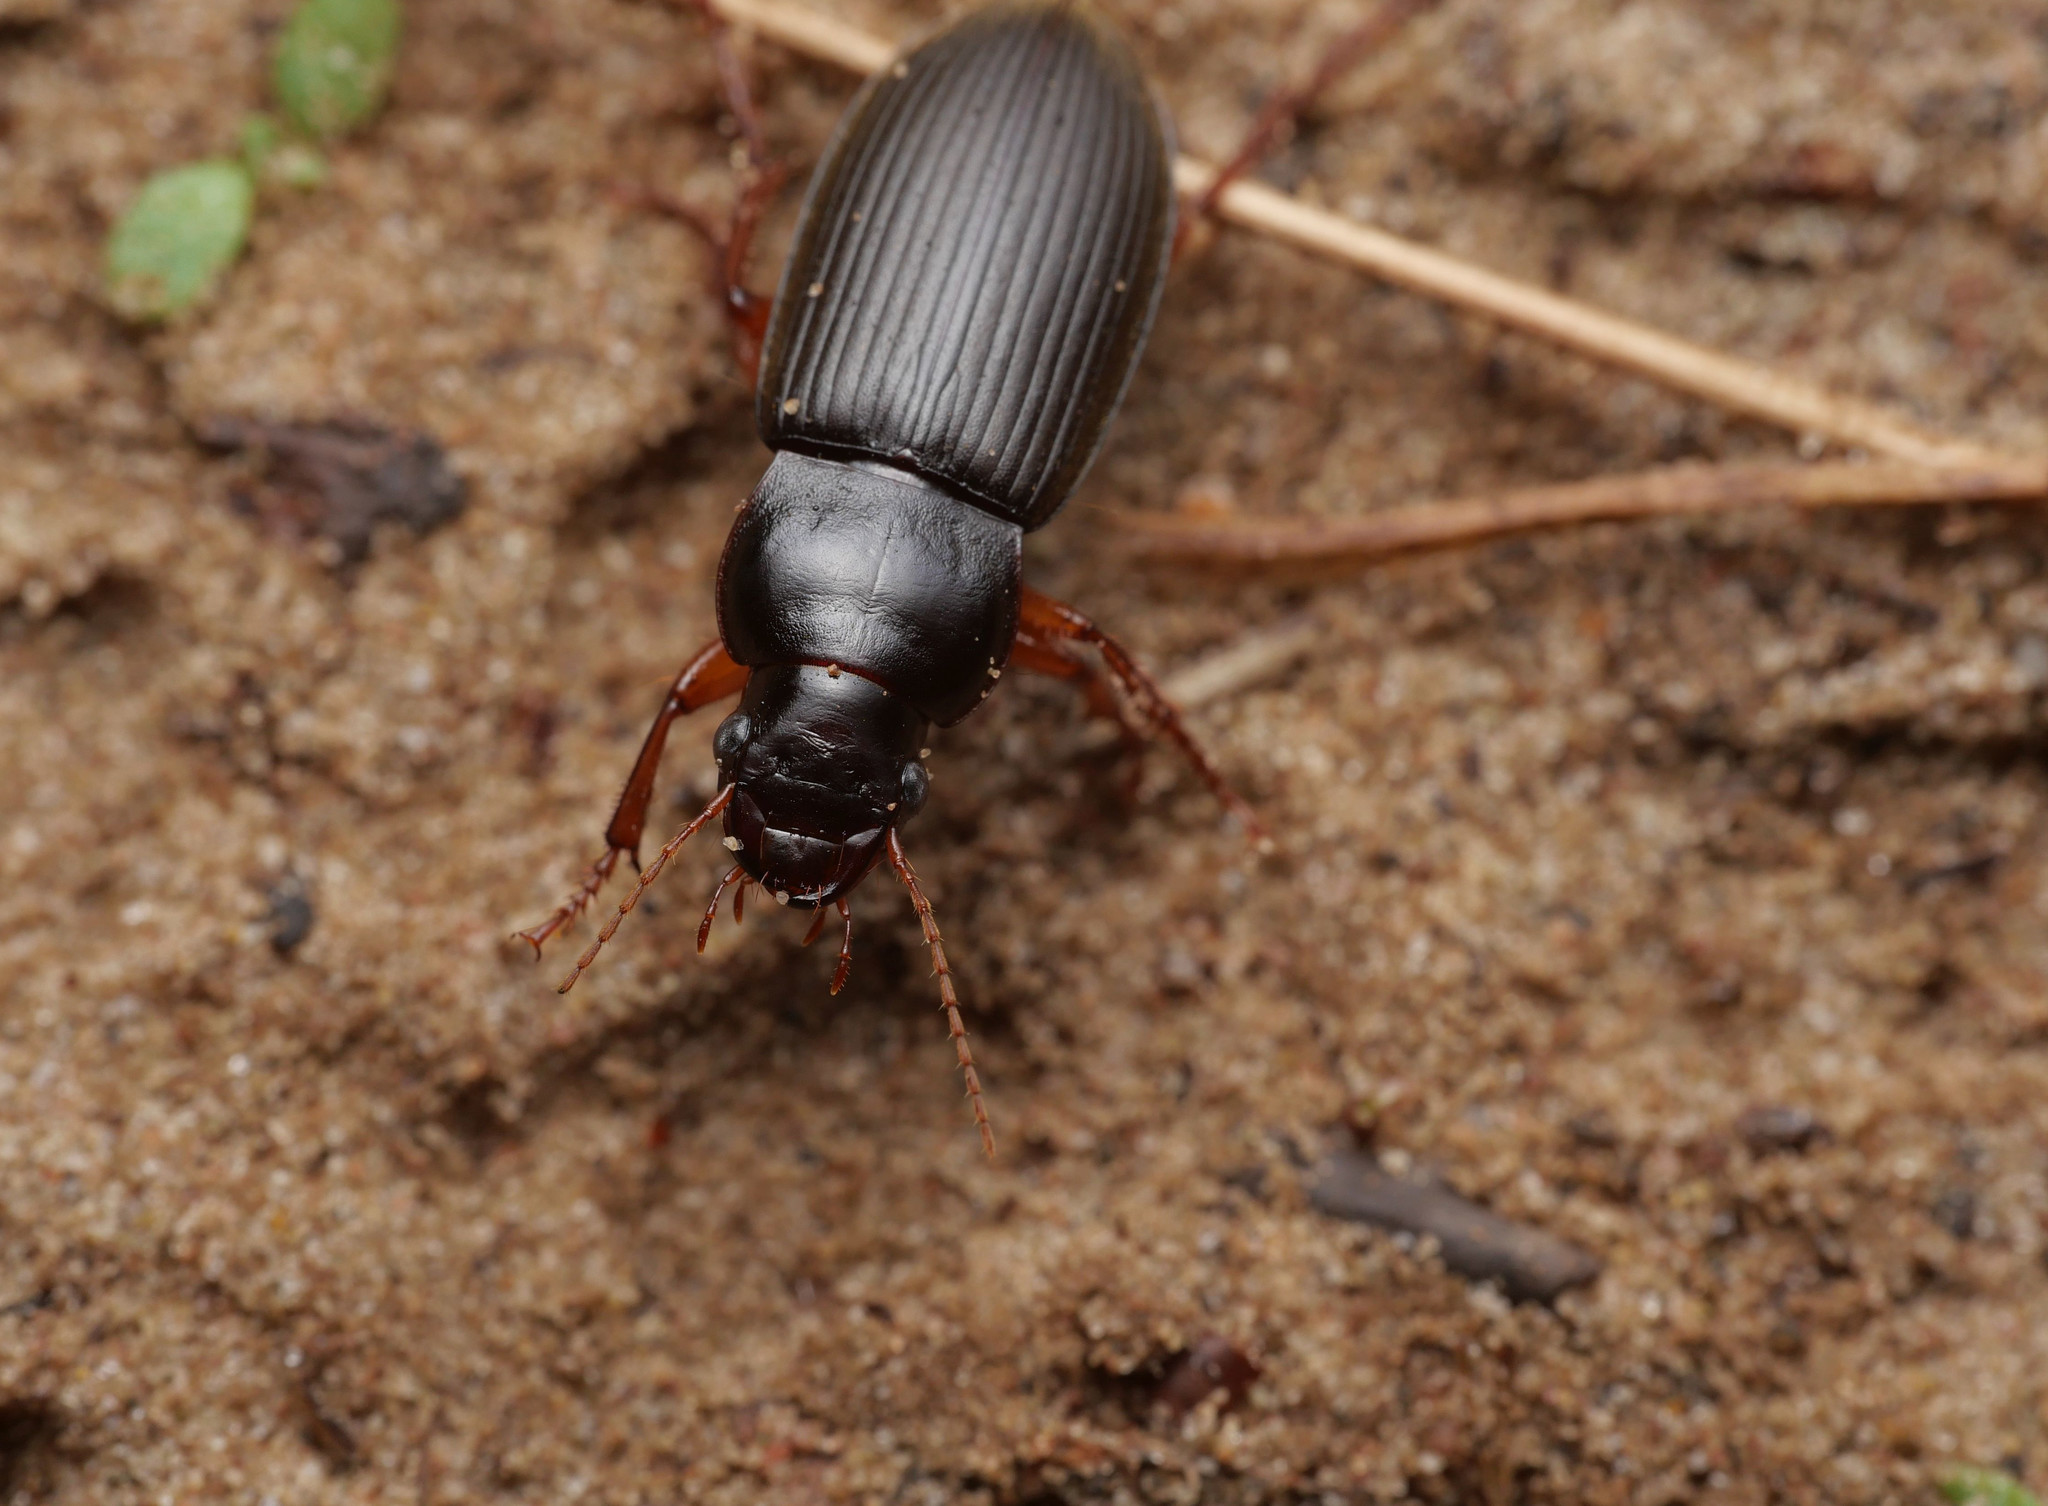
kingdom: Animalia
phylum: Arthropoda
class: Insecta
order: Coleoptera
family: Carabidae
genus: Harpalus
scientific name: Harpalus rufipes
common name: Strawberry harp ground beetle
